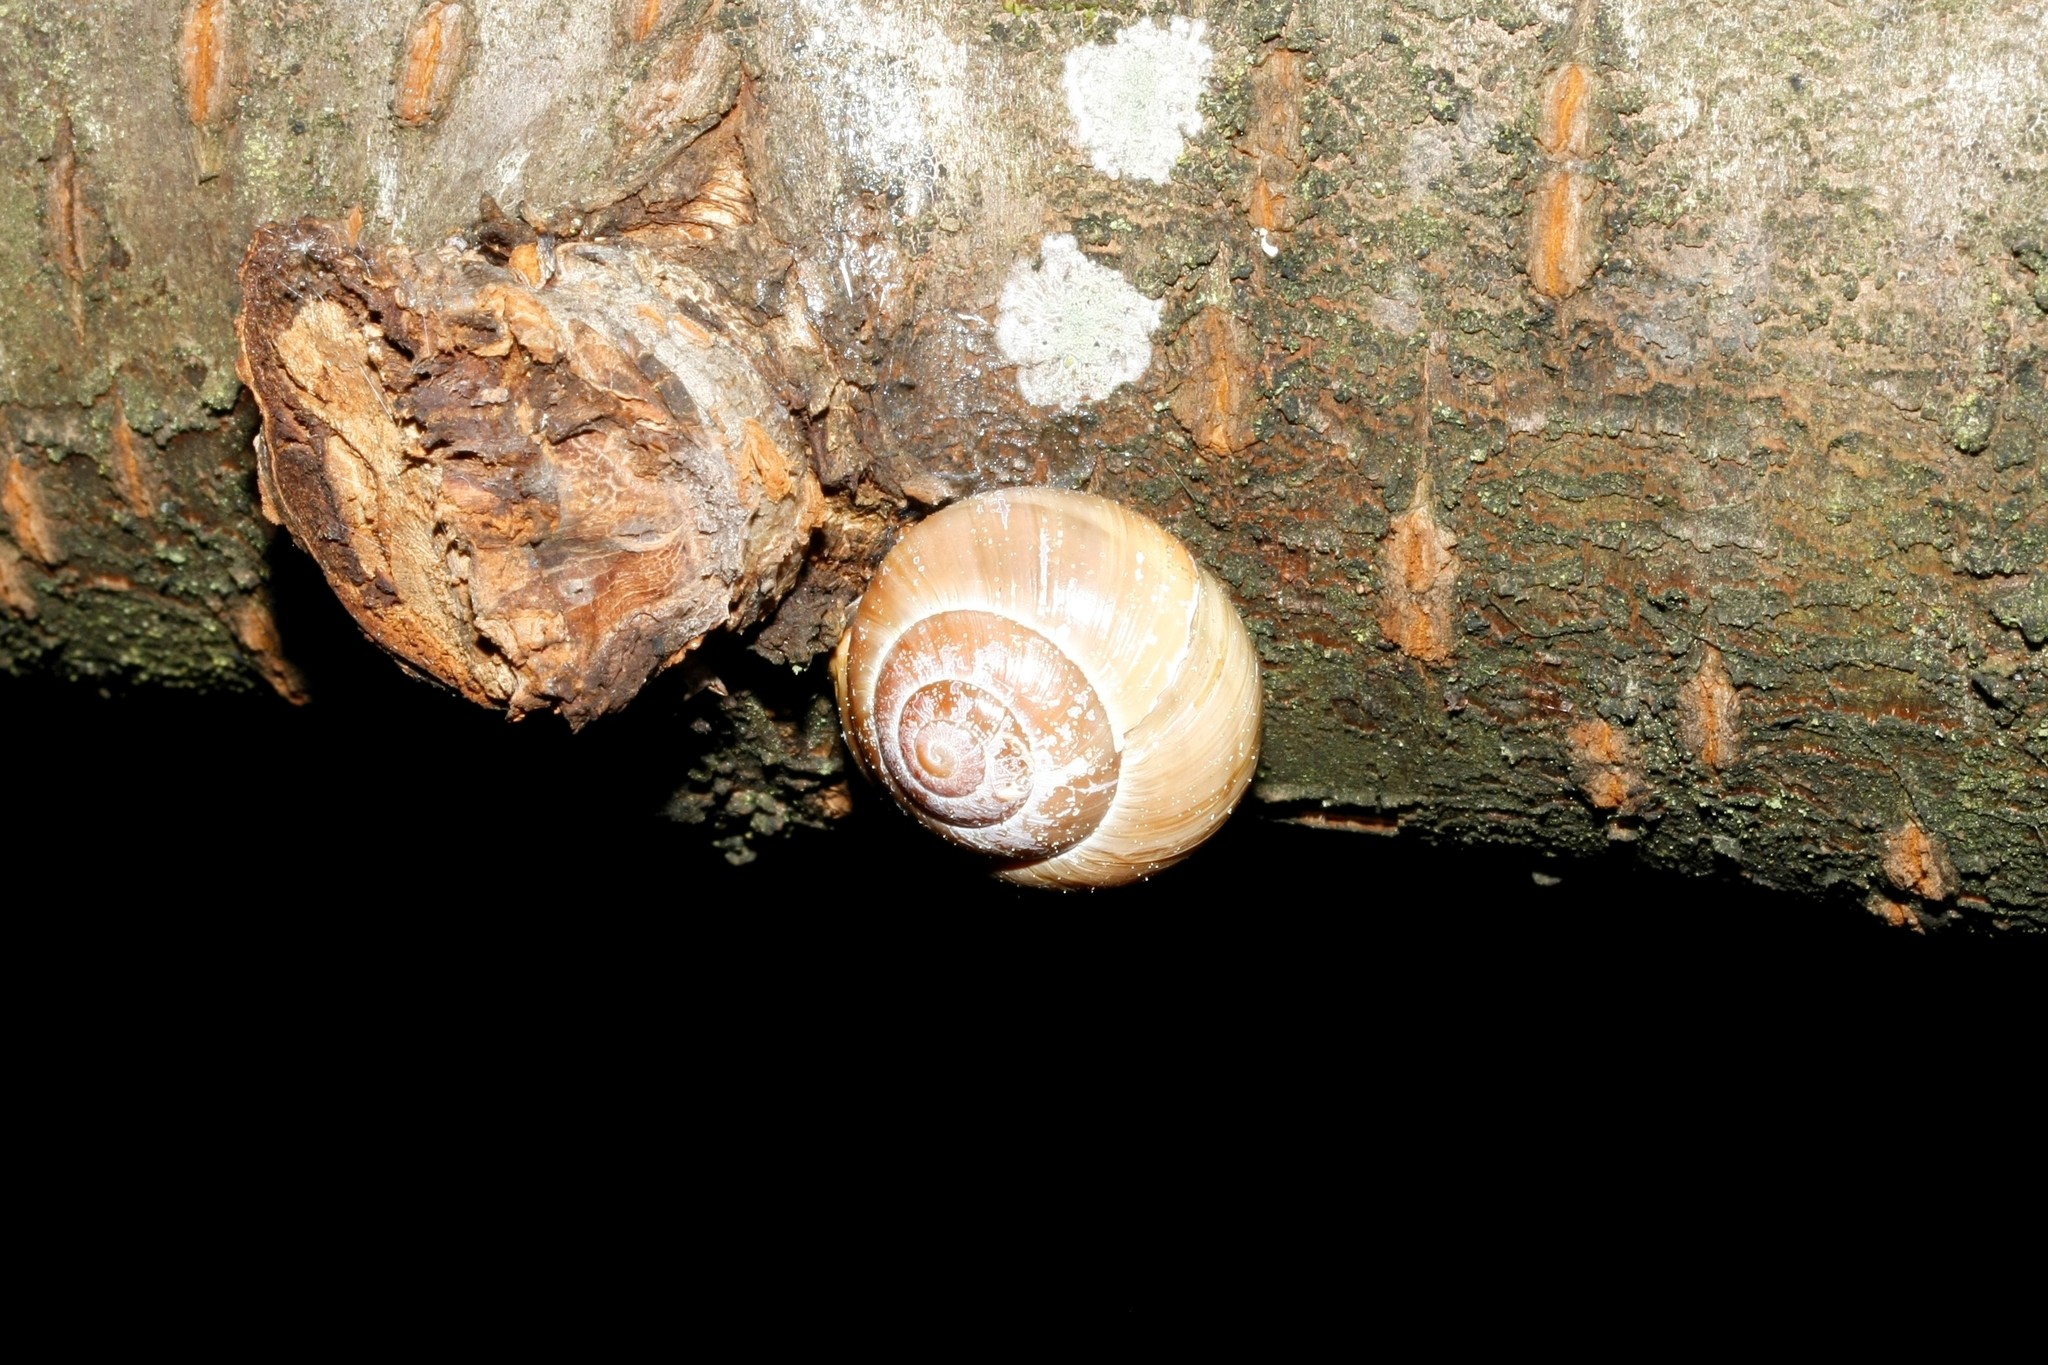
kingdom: Animalia
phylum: Mollusca
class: Gastropoda
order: Stylommatophora
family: Helicidae
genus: Cepaea
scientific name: Cepaea
